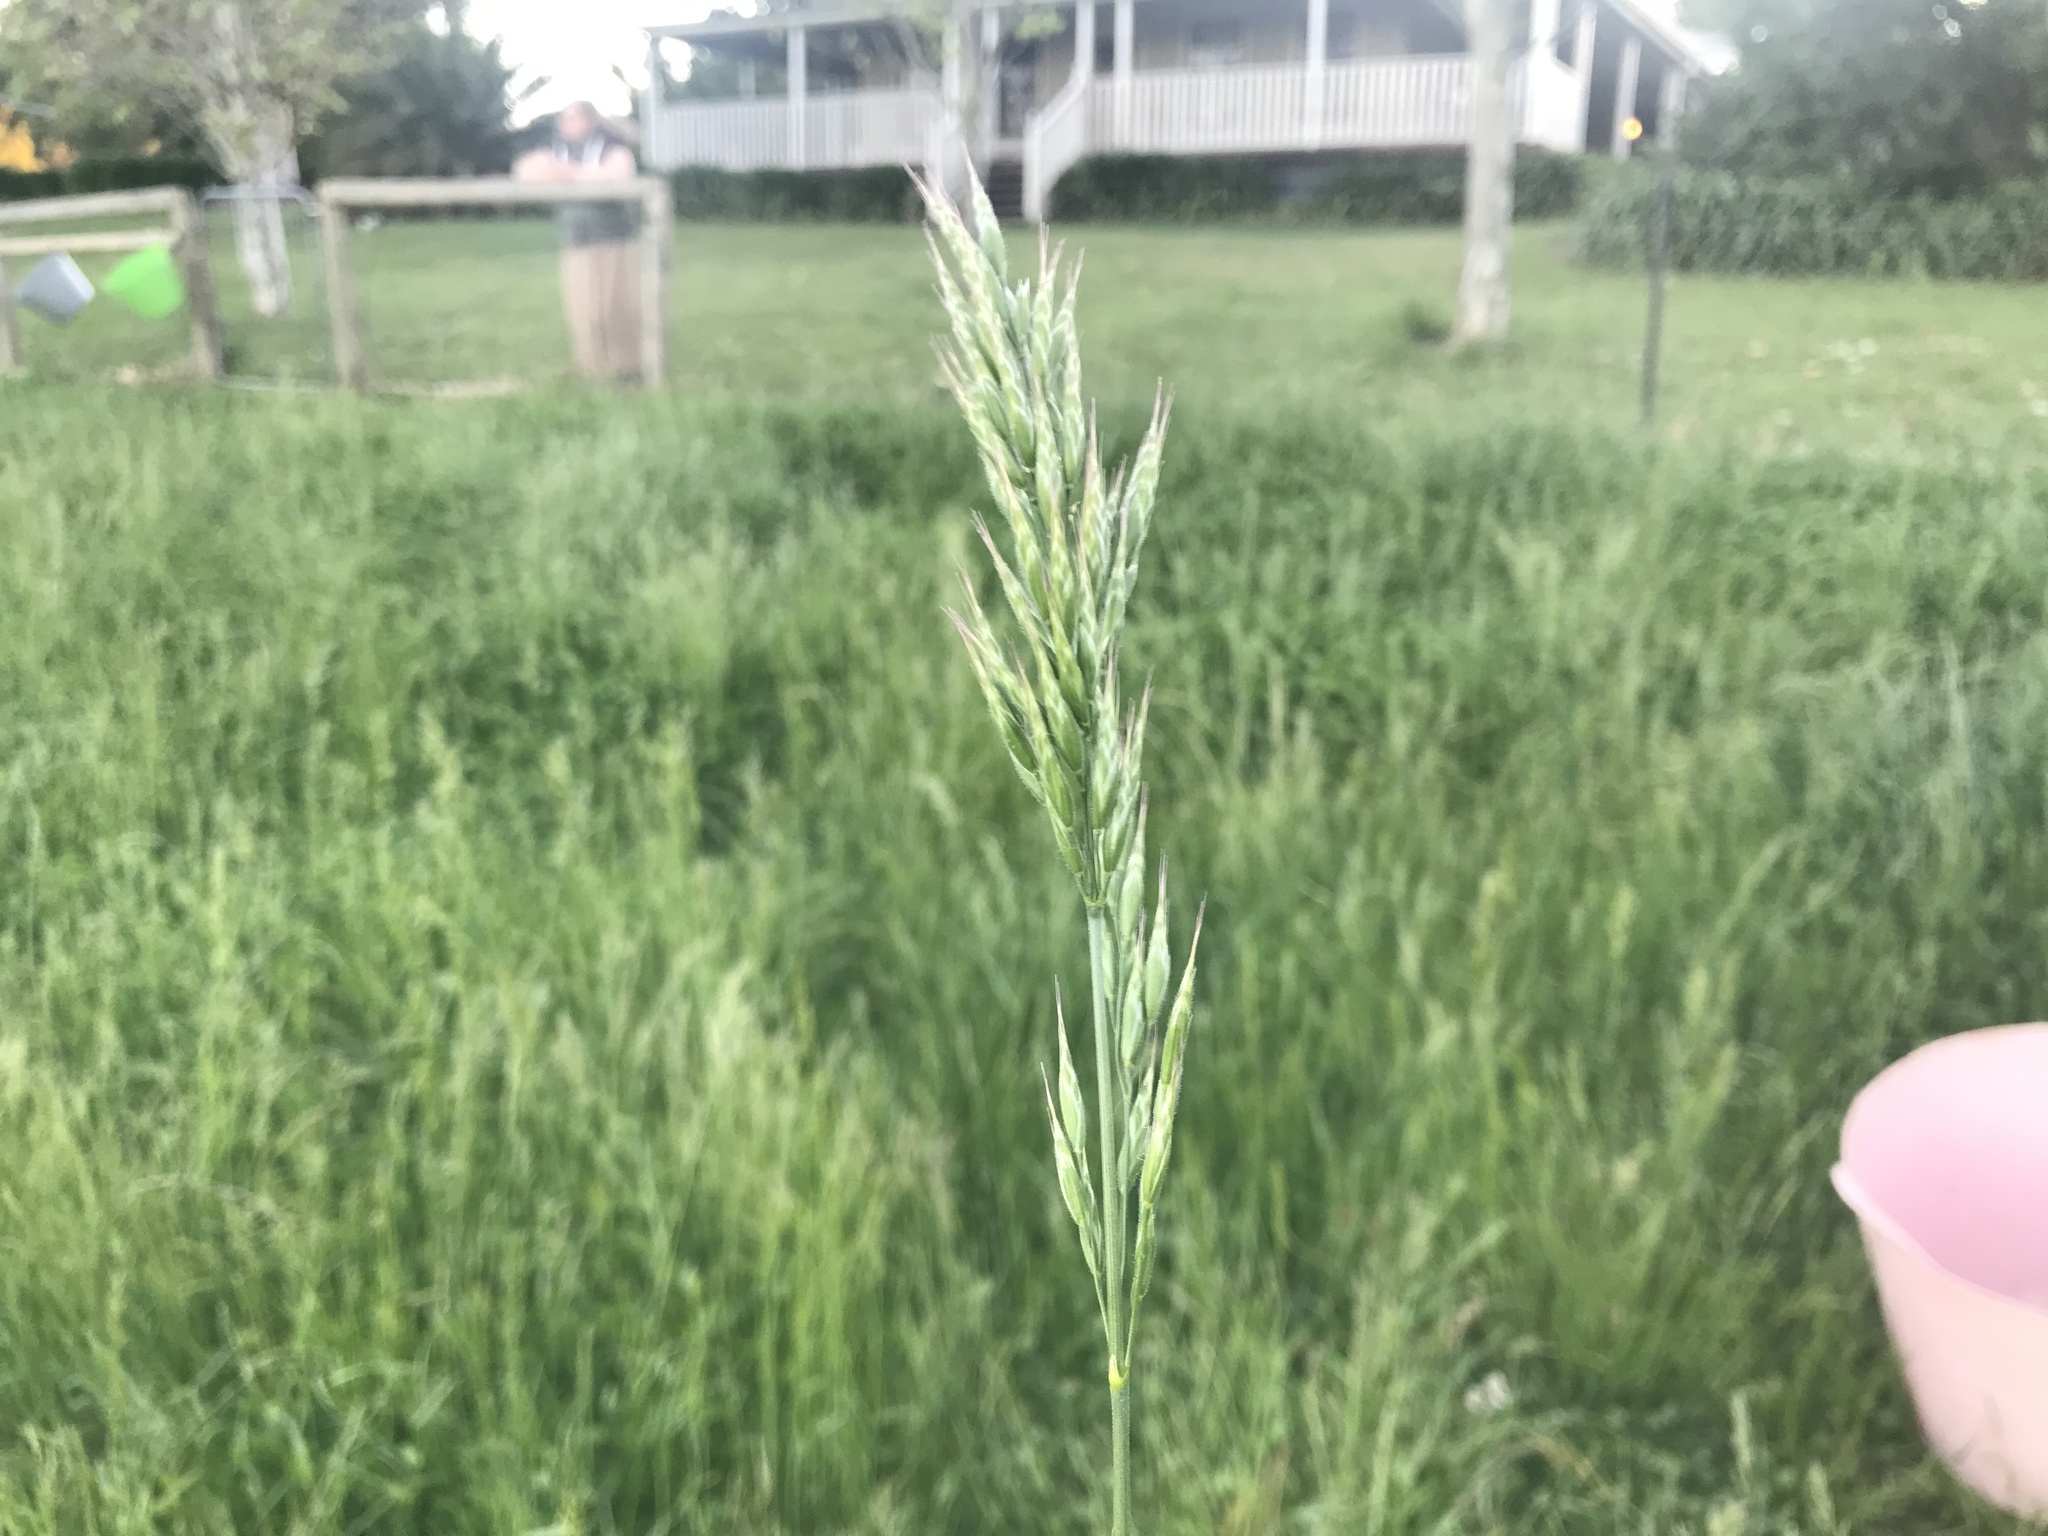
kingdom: Plantae
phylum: Tracheophyta
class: Liliopsida
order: Poales
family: Poaceae
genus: Bromus
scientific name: Bromus hordeaceus
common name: Soft brome
